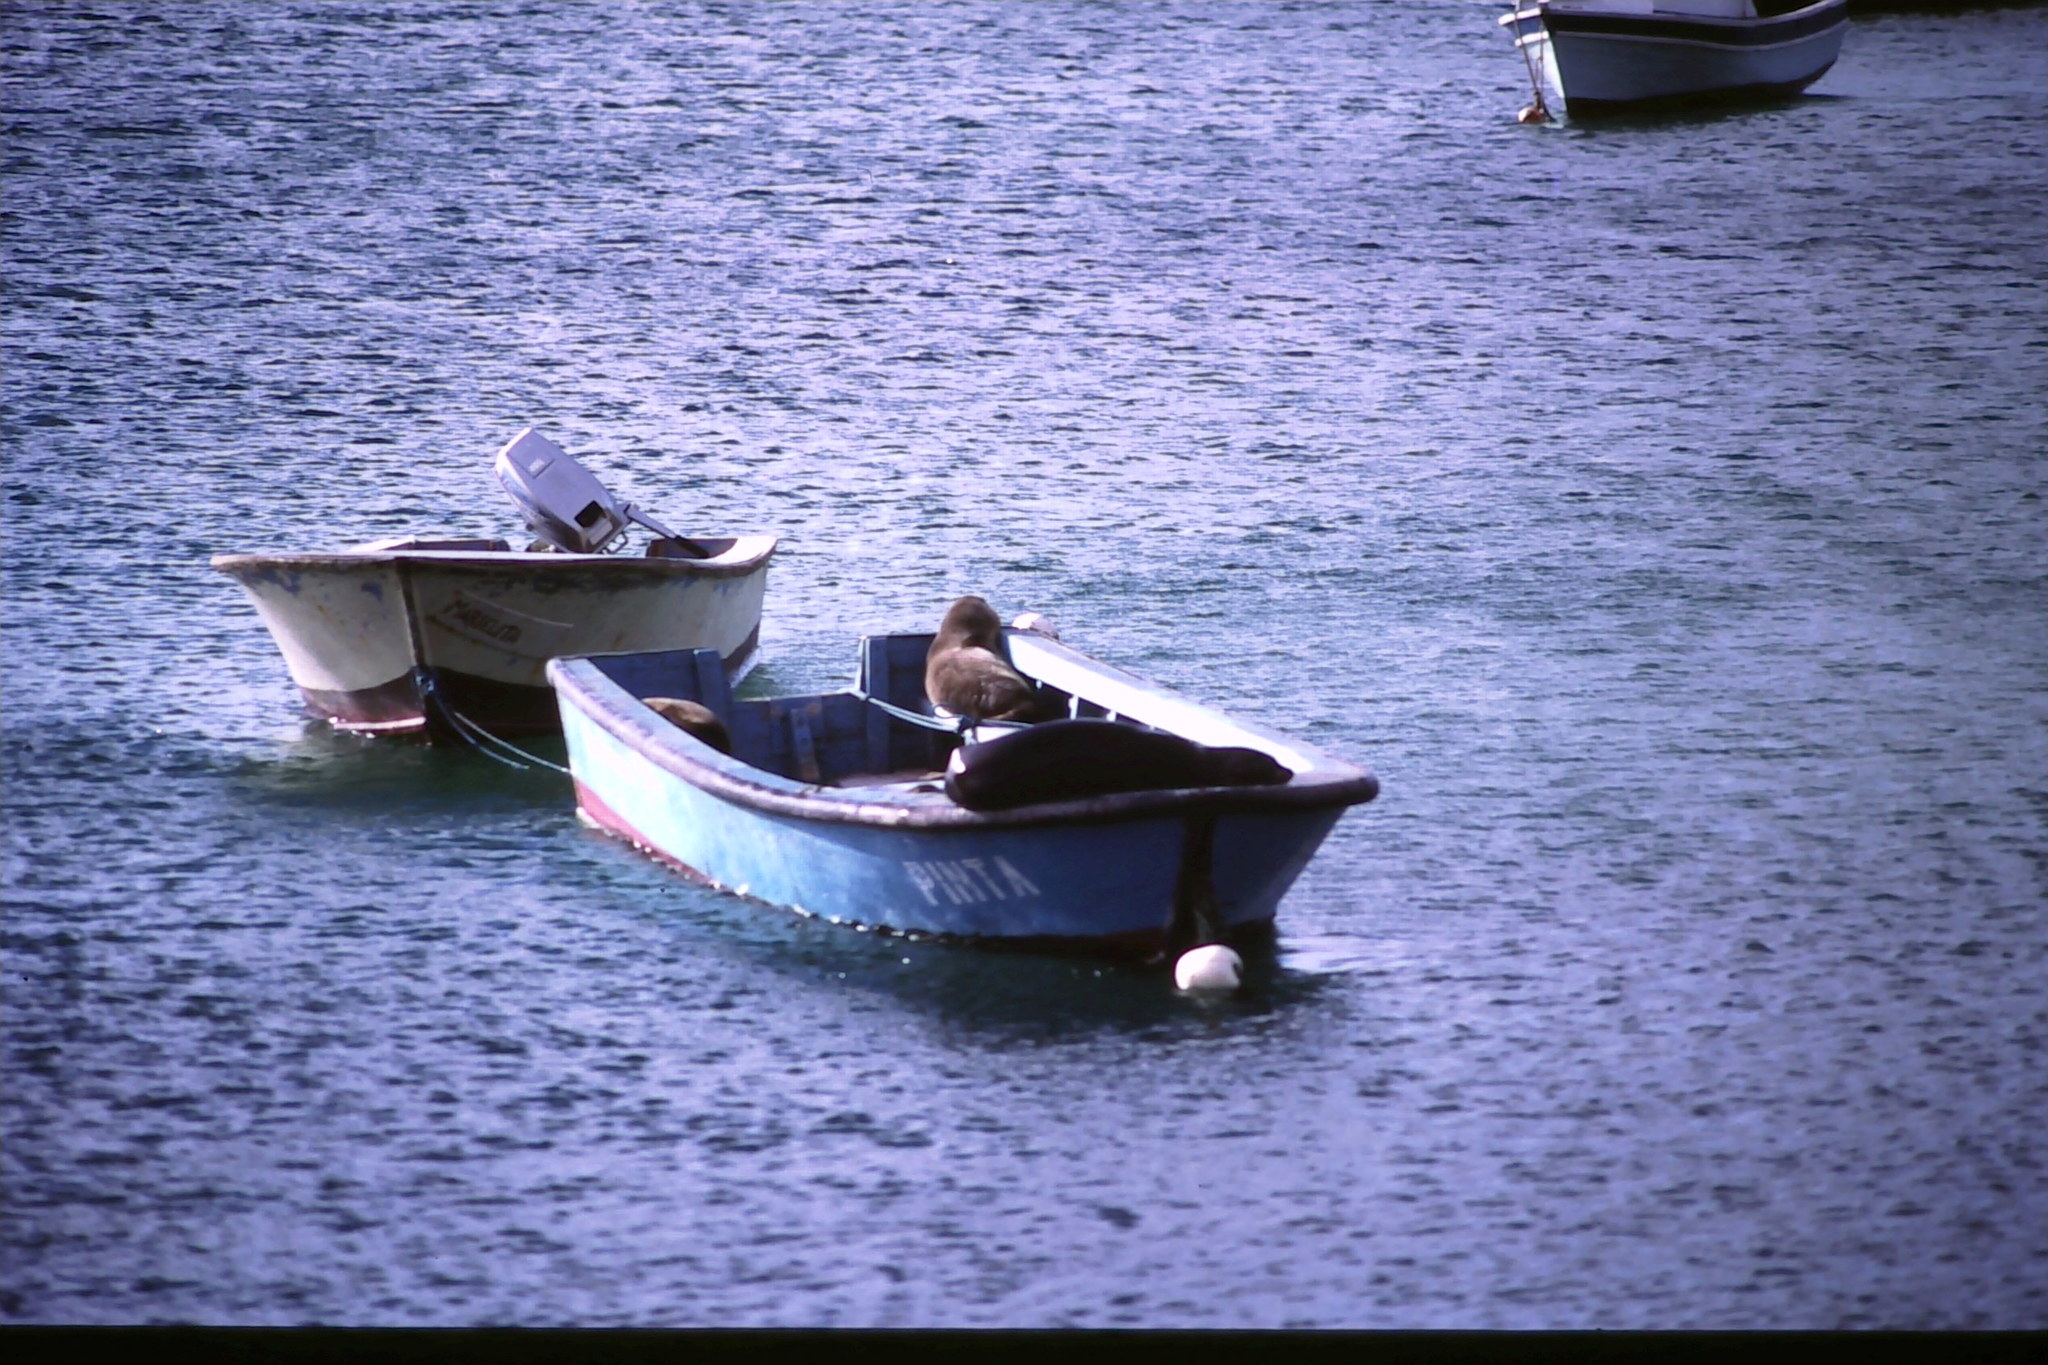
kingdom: Animalia
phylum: Chordata
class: Mammalia
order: Carnivora
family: Otariidae
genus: Zalophus
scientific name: Zalophus wollebaeki
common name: Galapagos sea lion
